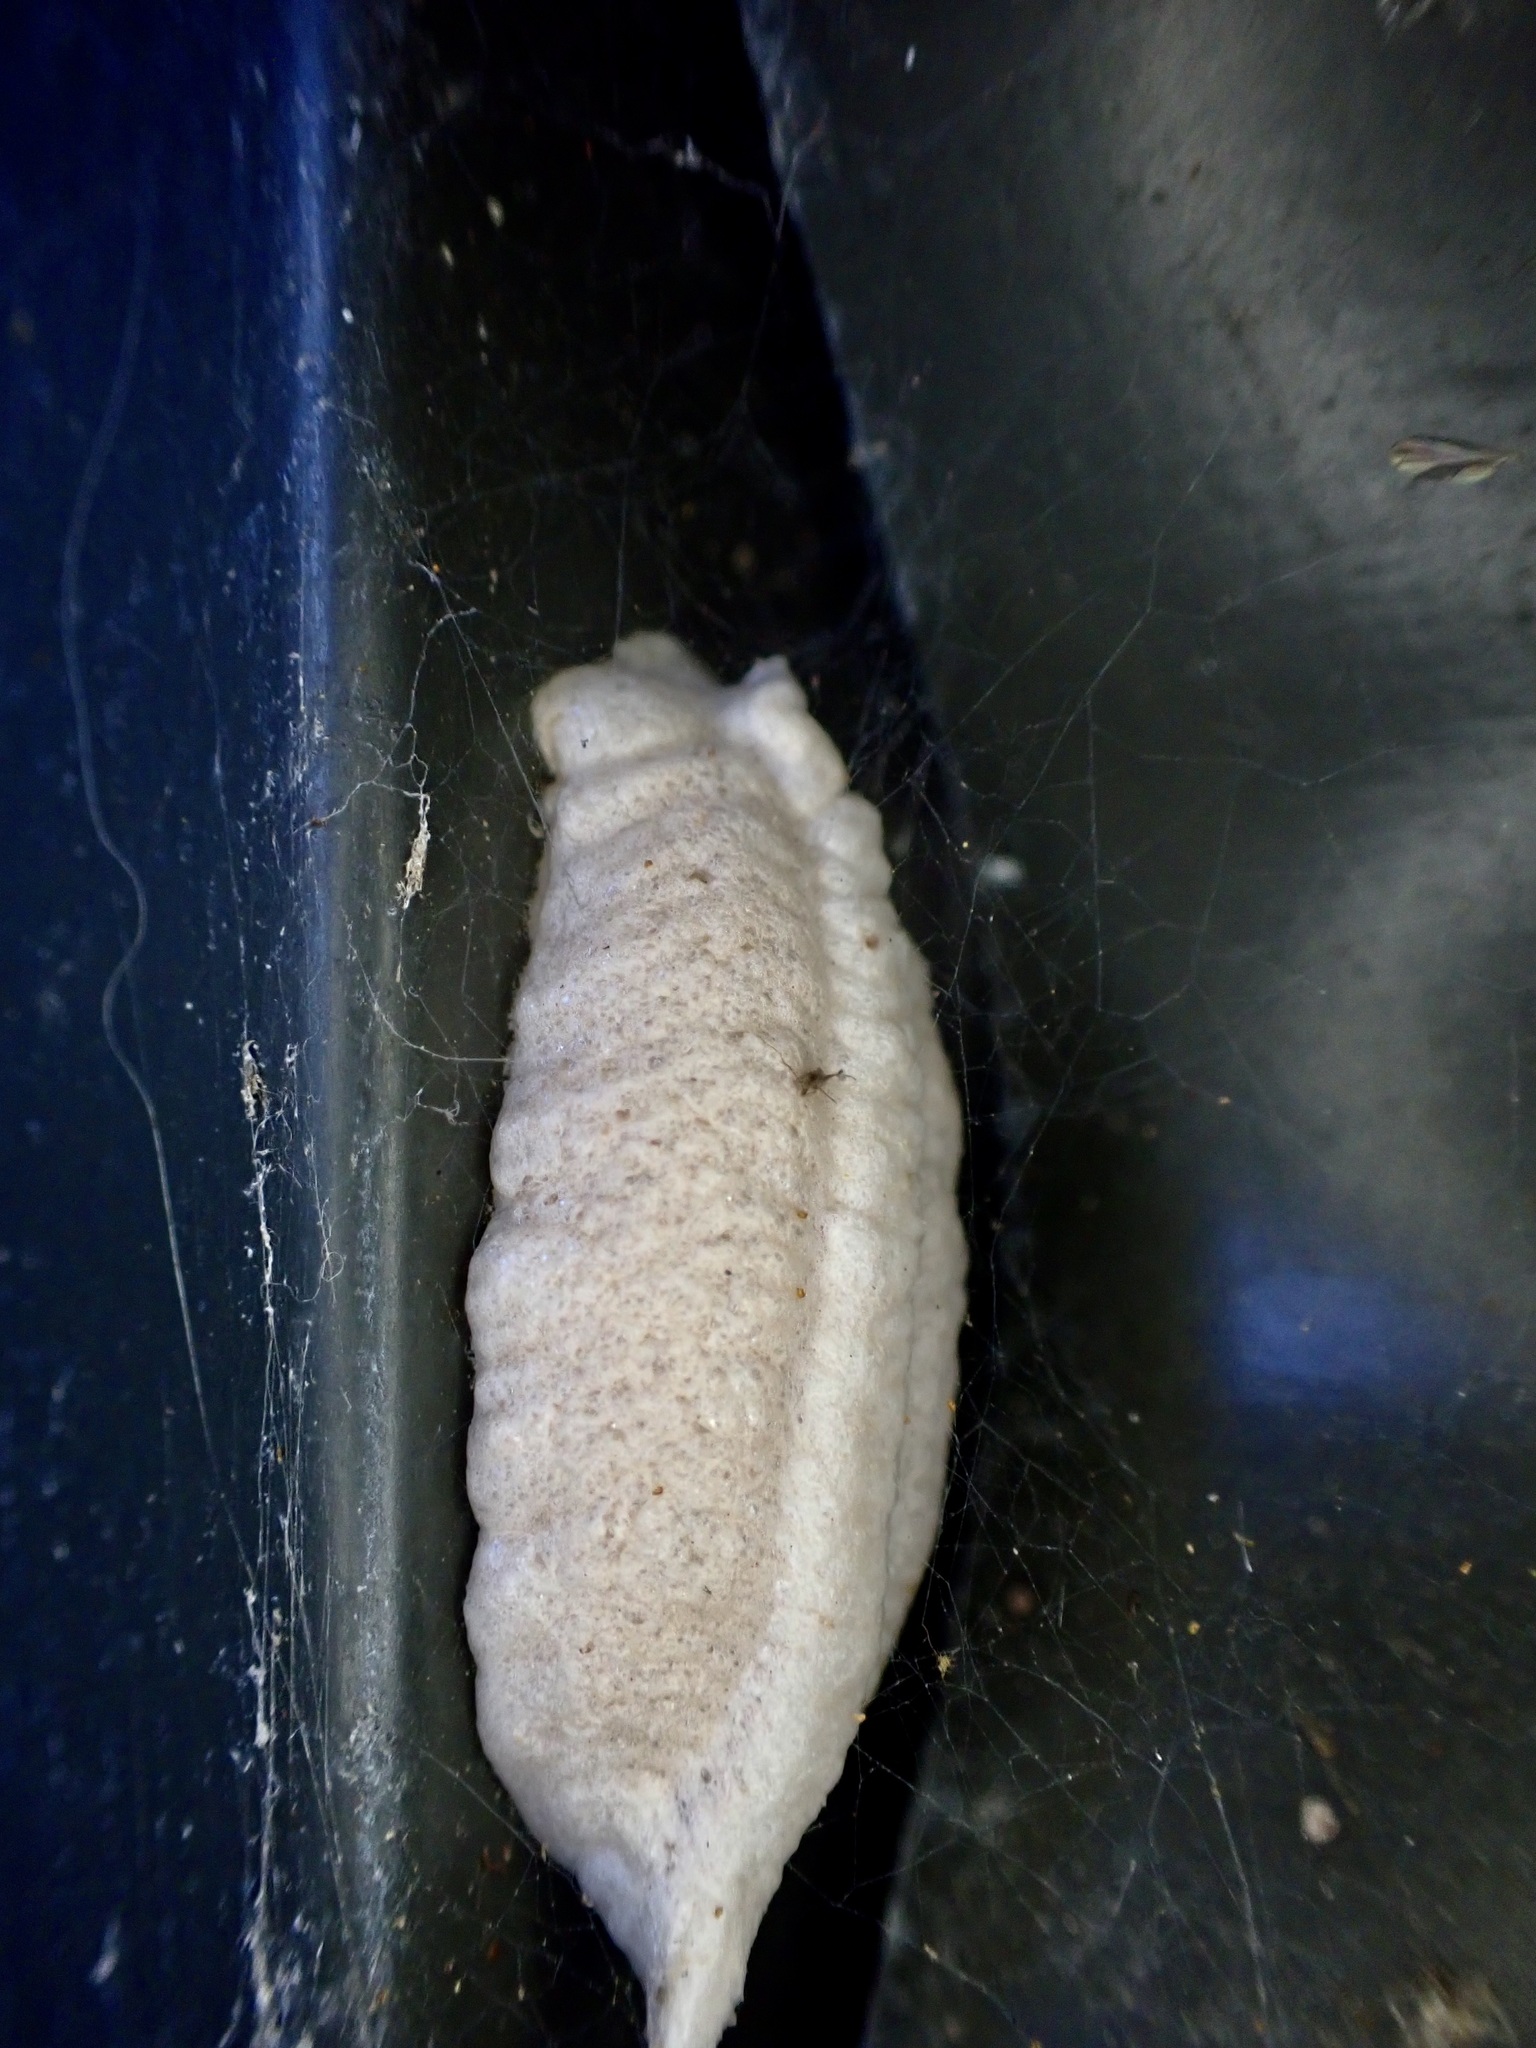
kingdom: Animalia
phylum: Arthropoda
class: Insecta
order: Mantodea
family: Miomantidae
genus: Miomantis
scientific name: Miomantis caffra
